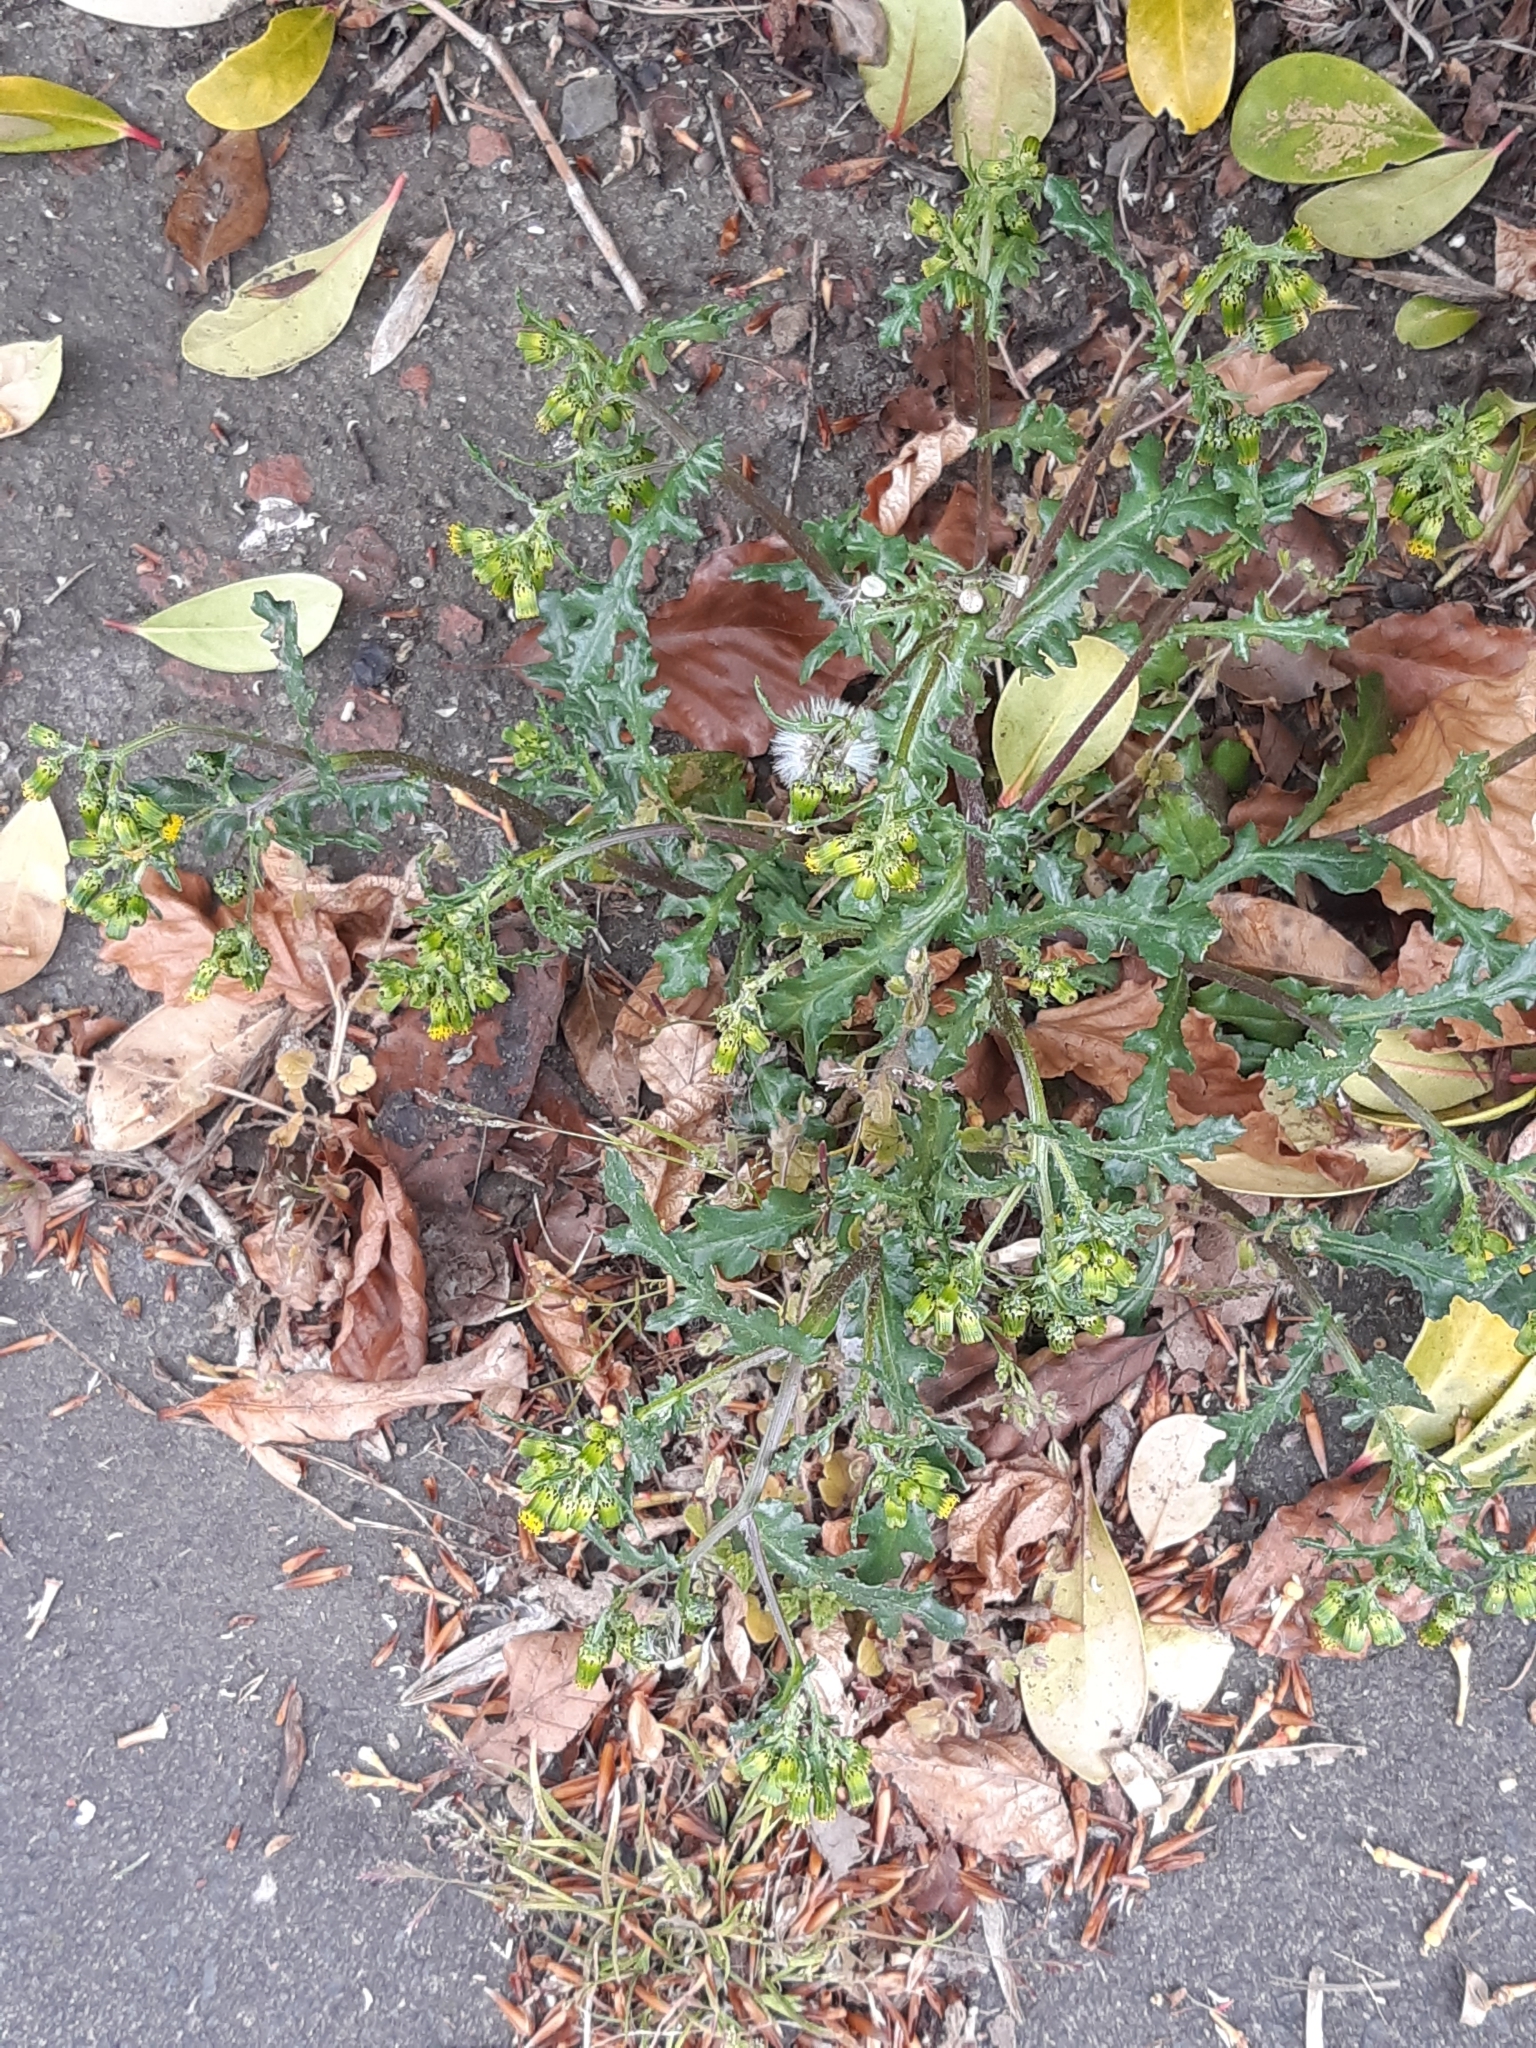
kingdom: Plantae
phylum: Tracheophyta
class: Magnoliopsida
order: Asterales
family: Asteraceae
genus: Senecio
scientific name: Senecio vulgaris
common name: Old-man-in-the-spring
